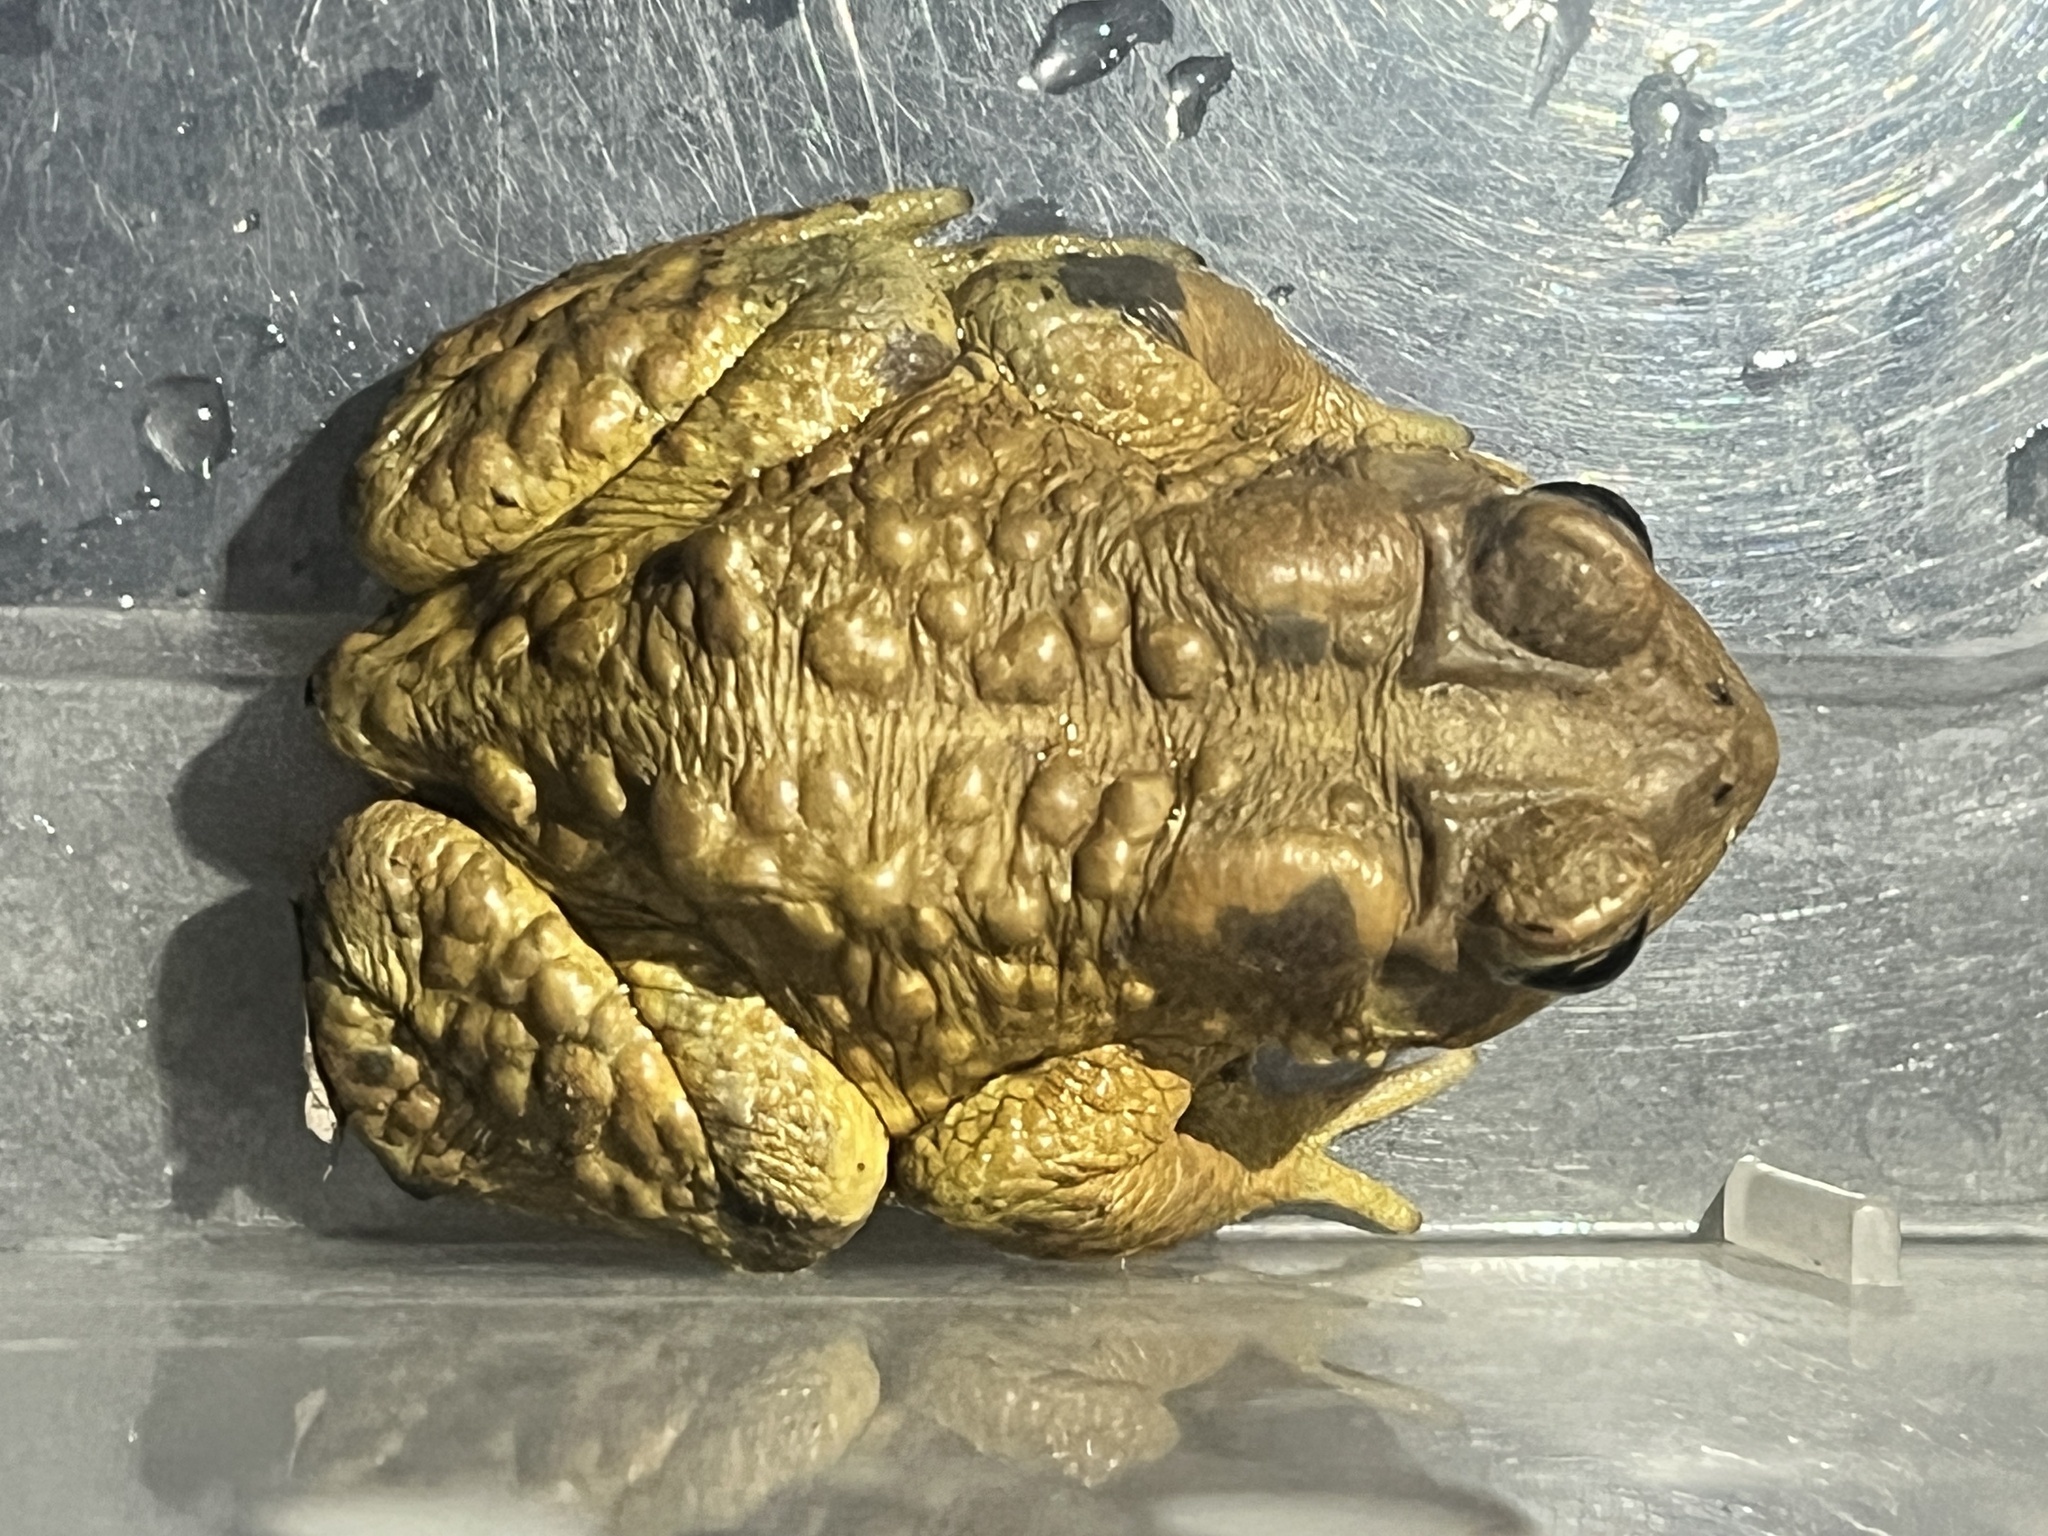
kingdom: Animalia
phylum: Chordata
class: Amphibia
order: Anura
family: Bufonidae
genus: Anaxyrus
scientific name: Anaxyrus americanus
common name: American toad
